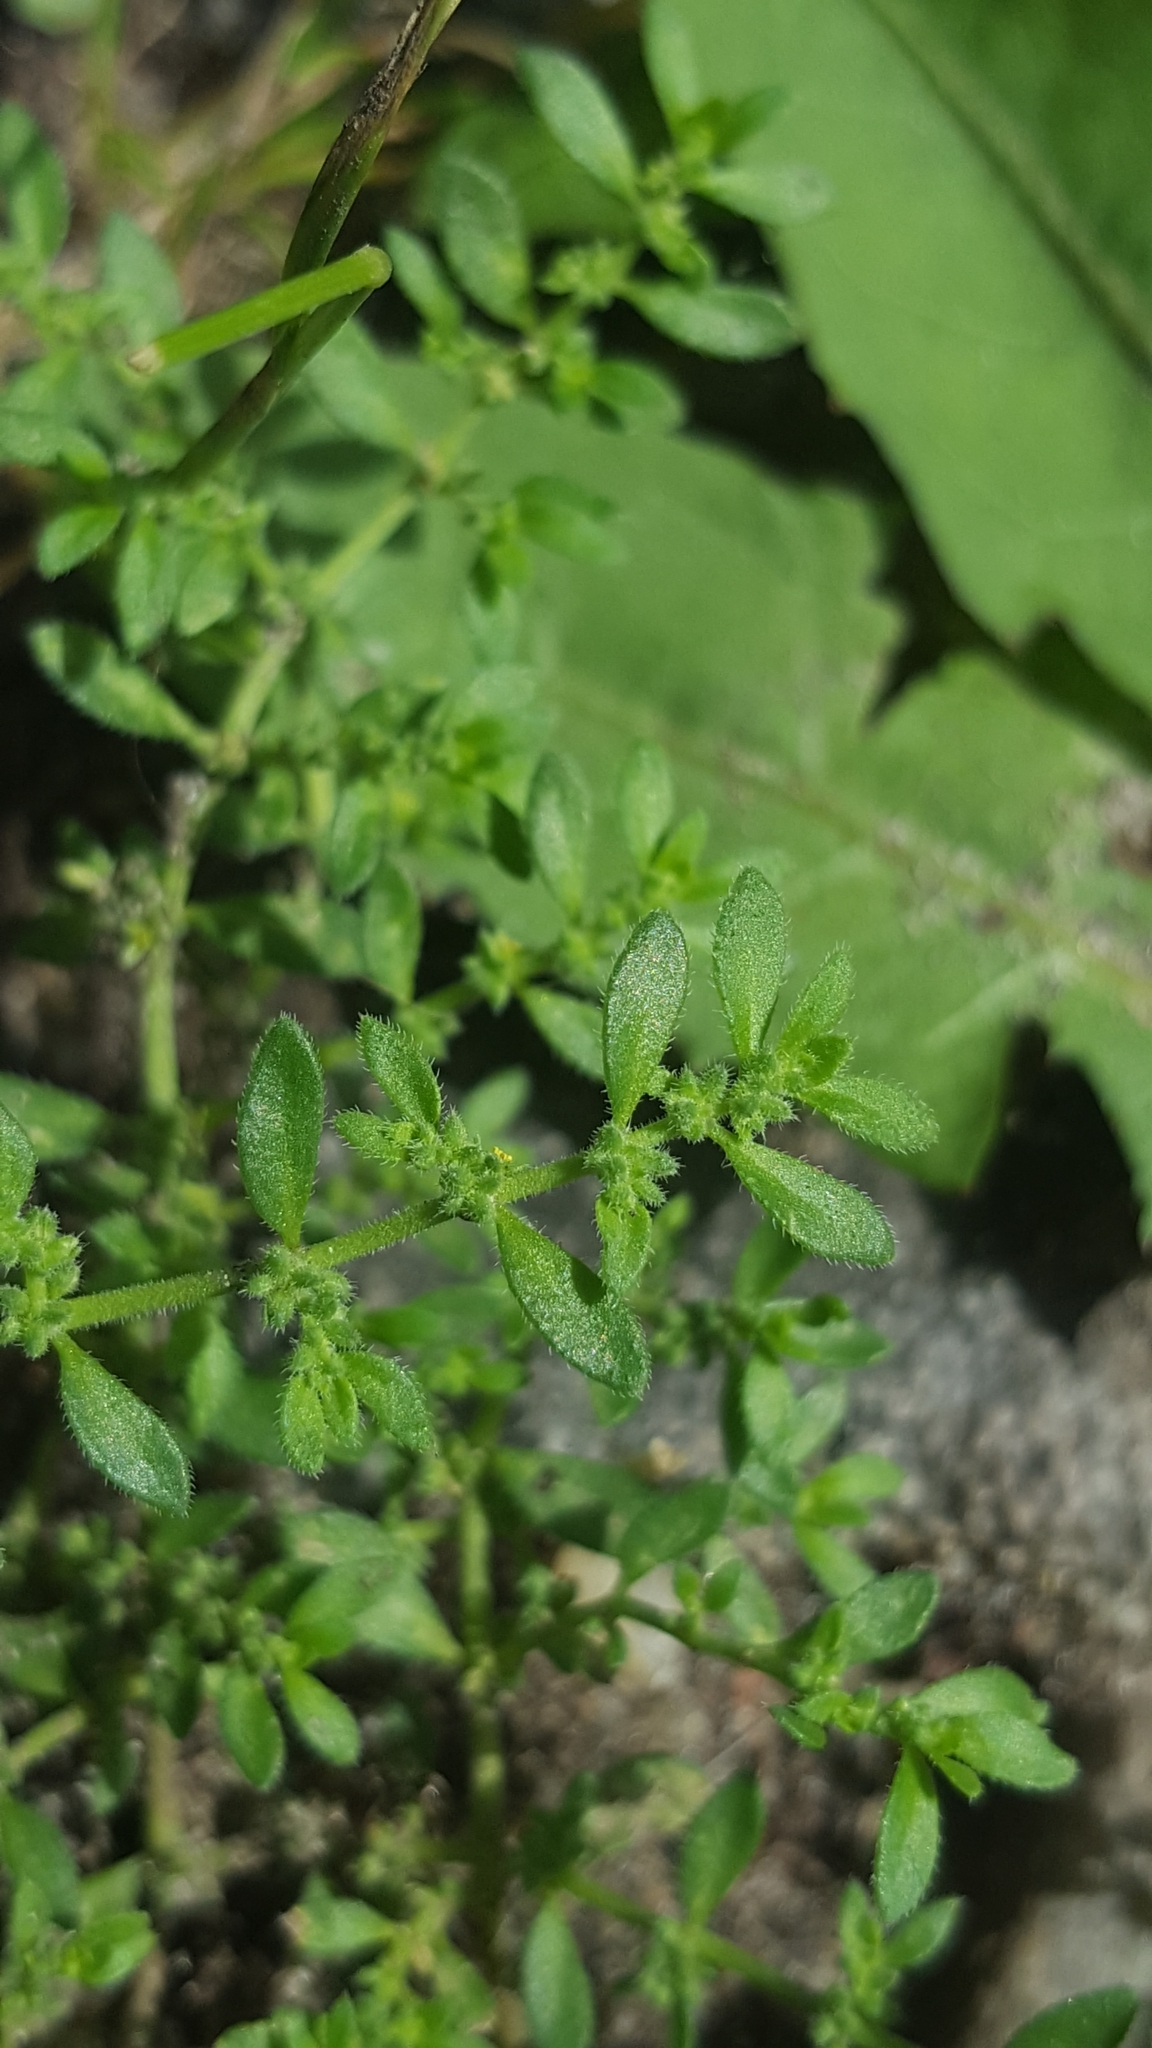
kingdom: Plantae
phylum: Tracheophyta
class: Magnoliopsida
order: Caryophyllales
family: Caryophyllaceae
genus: Herniaria
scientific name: Herniaria hirsuta
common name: Hairy rupturewort
